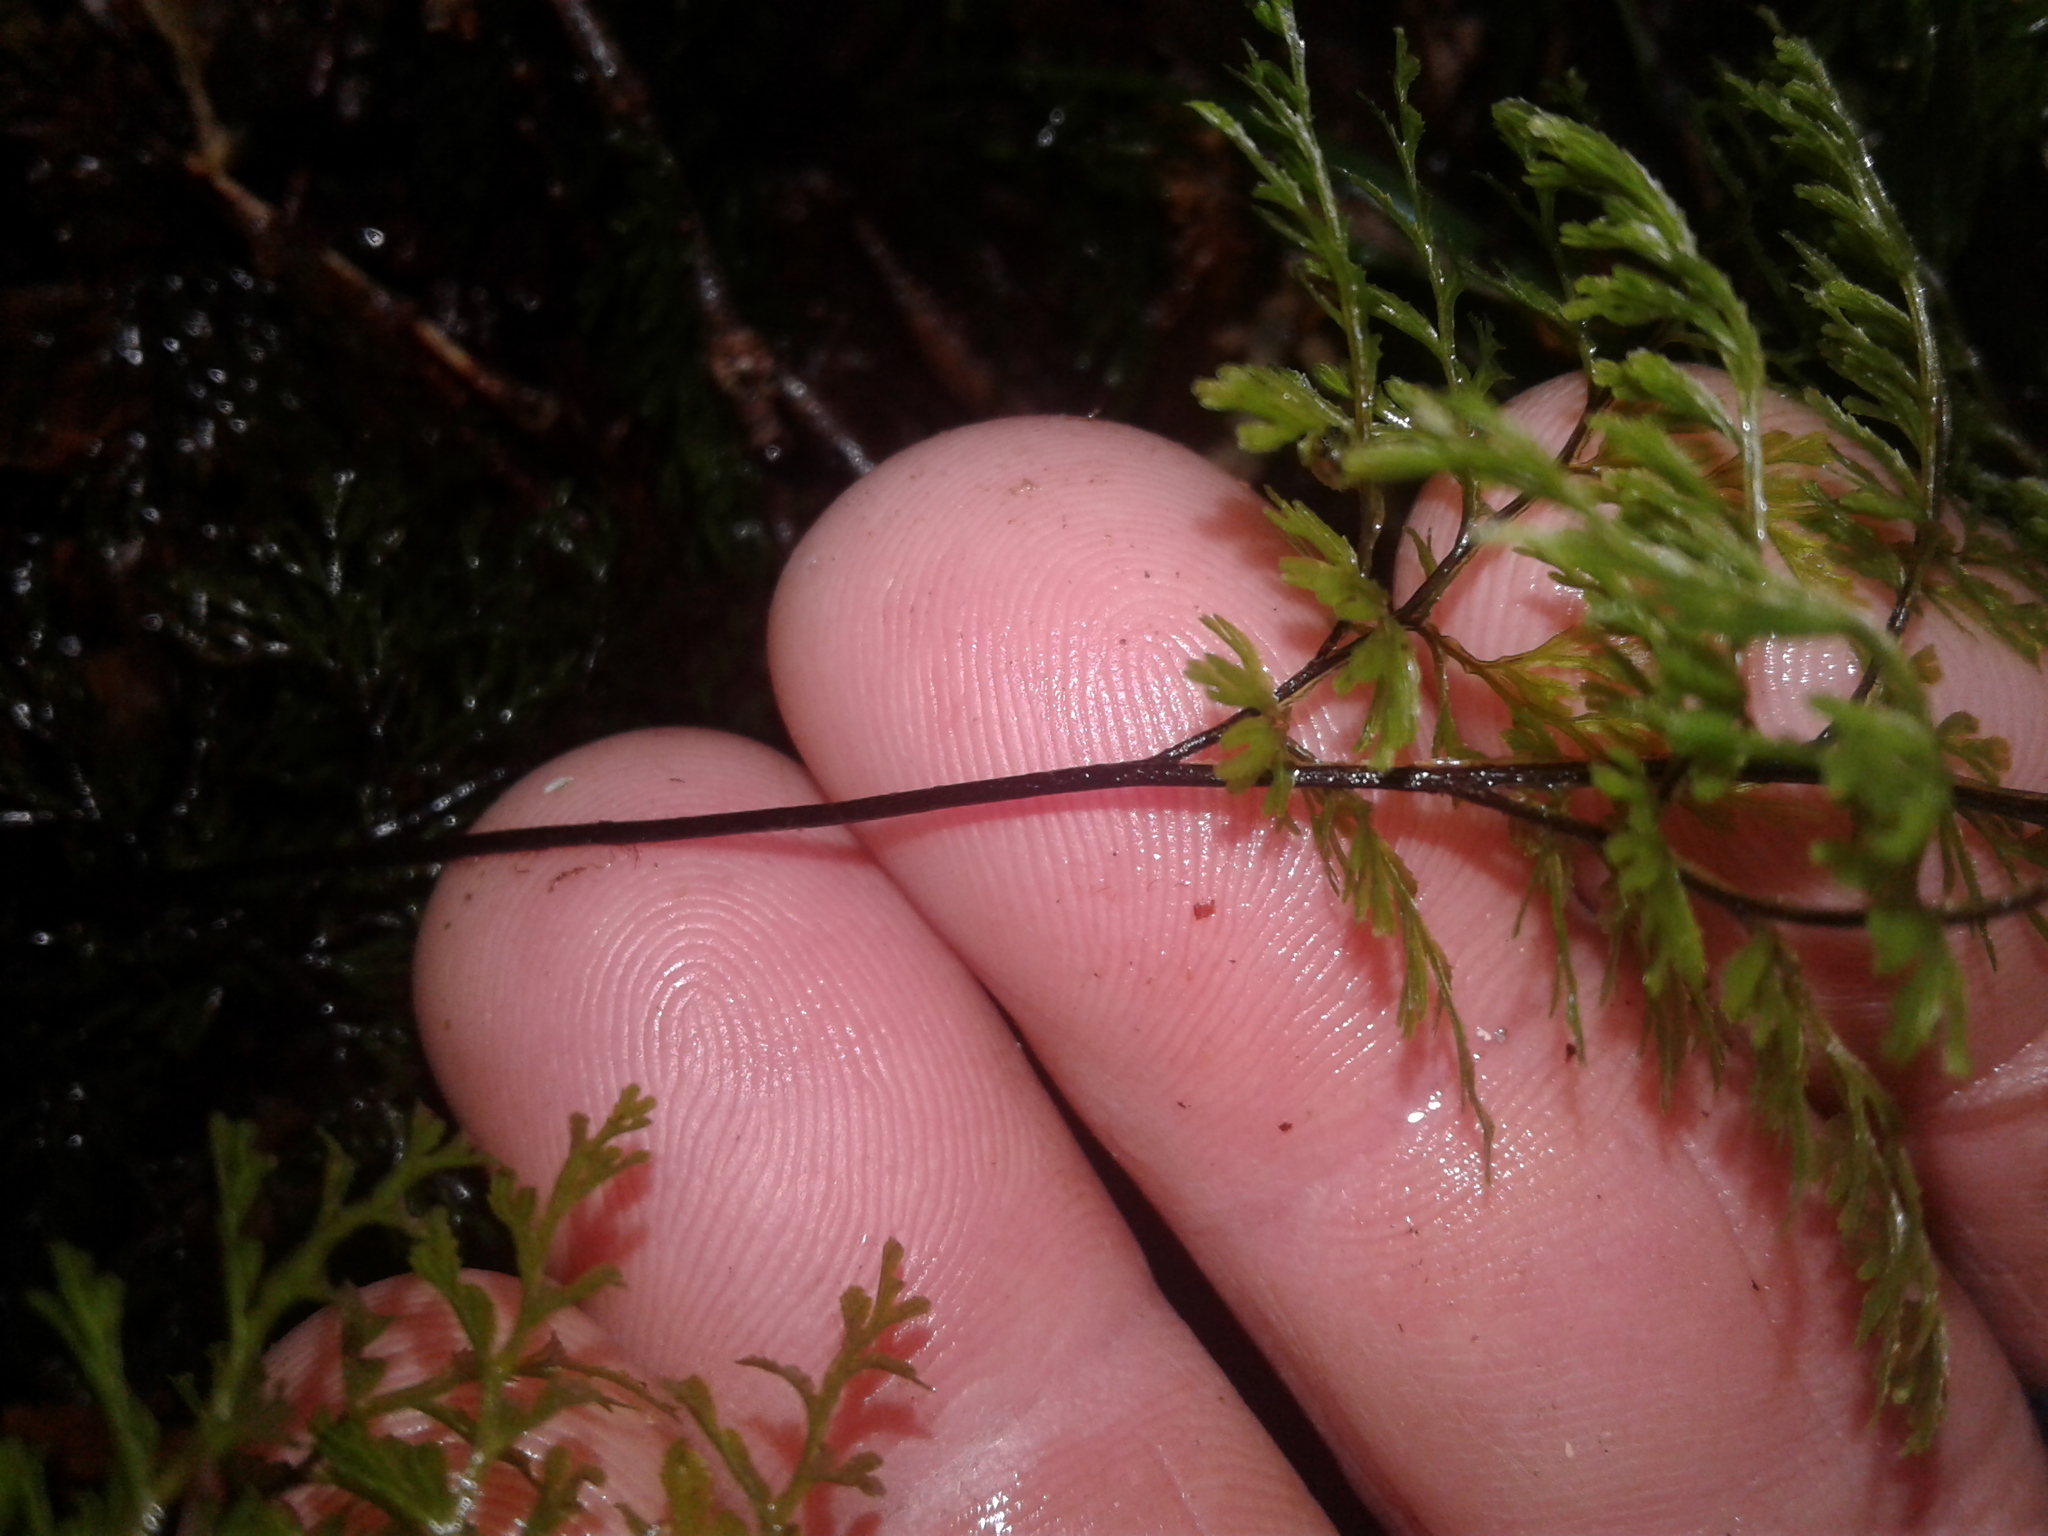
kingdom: Plantae
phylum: Tracheophyta
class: Polypodiopsida
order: Hymenophyllales
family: Hymenophyllaceae
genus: Hymenophyllum
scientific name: Hymenophyllum bivalve
